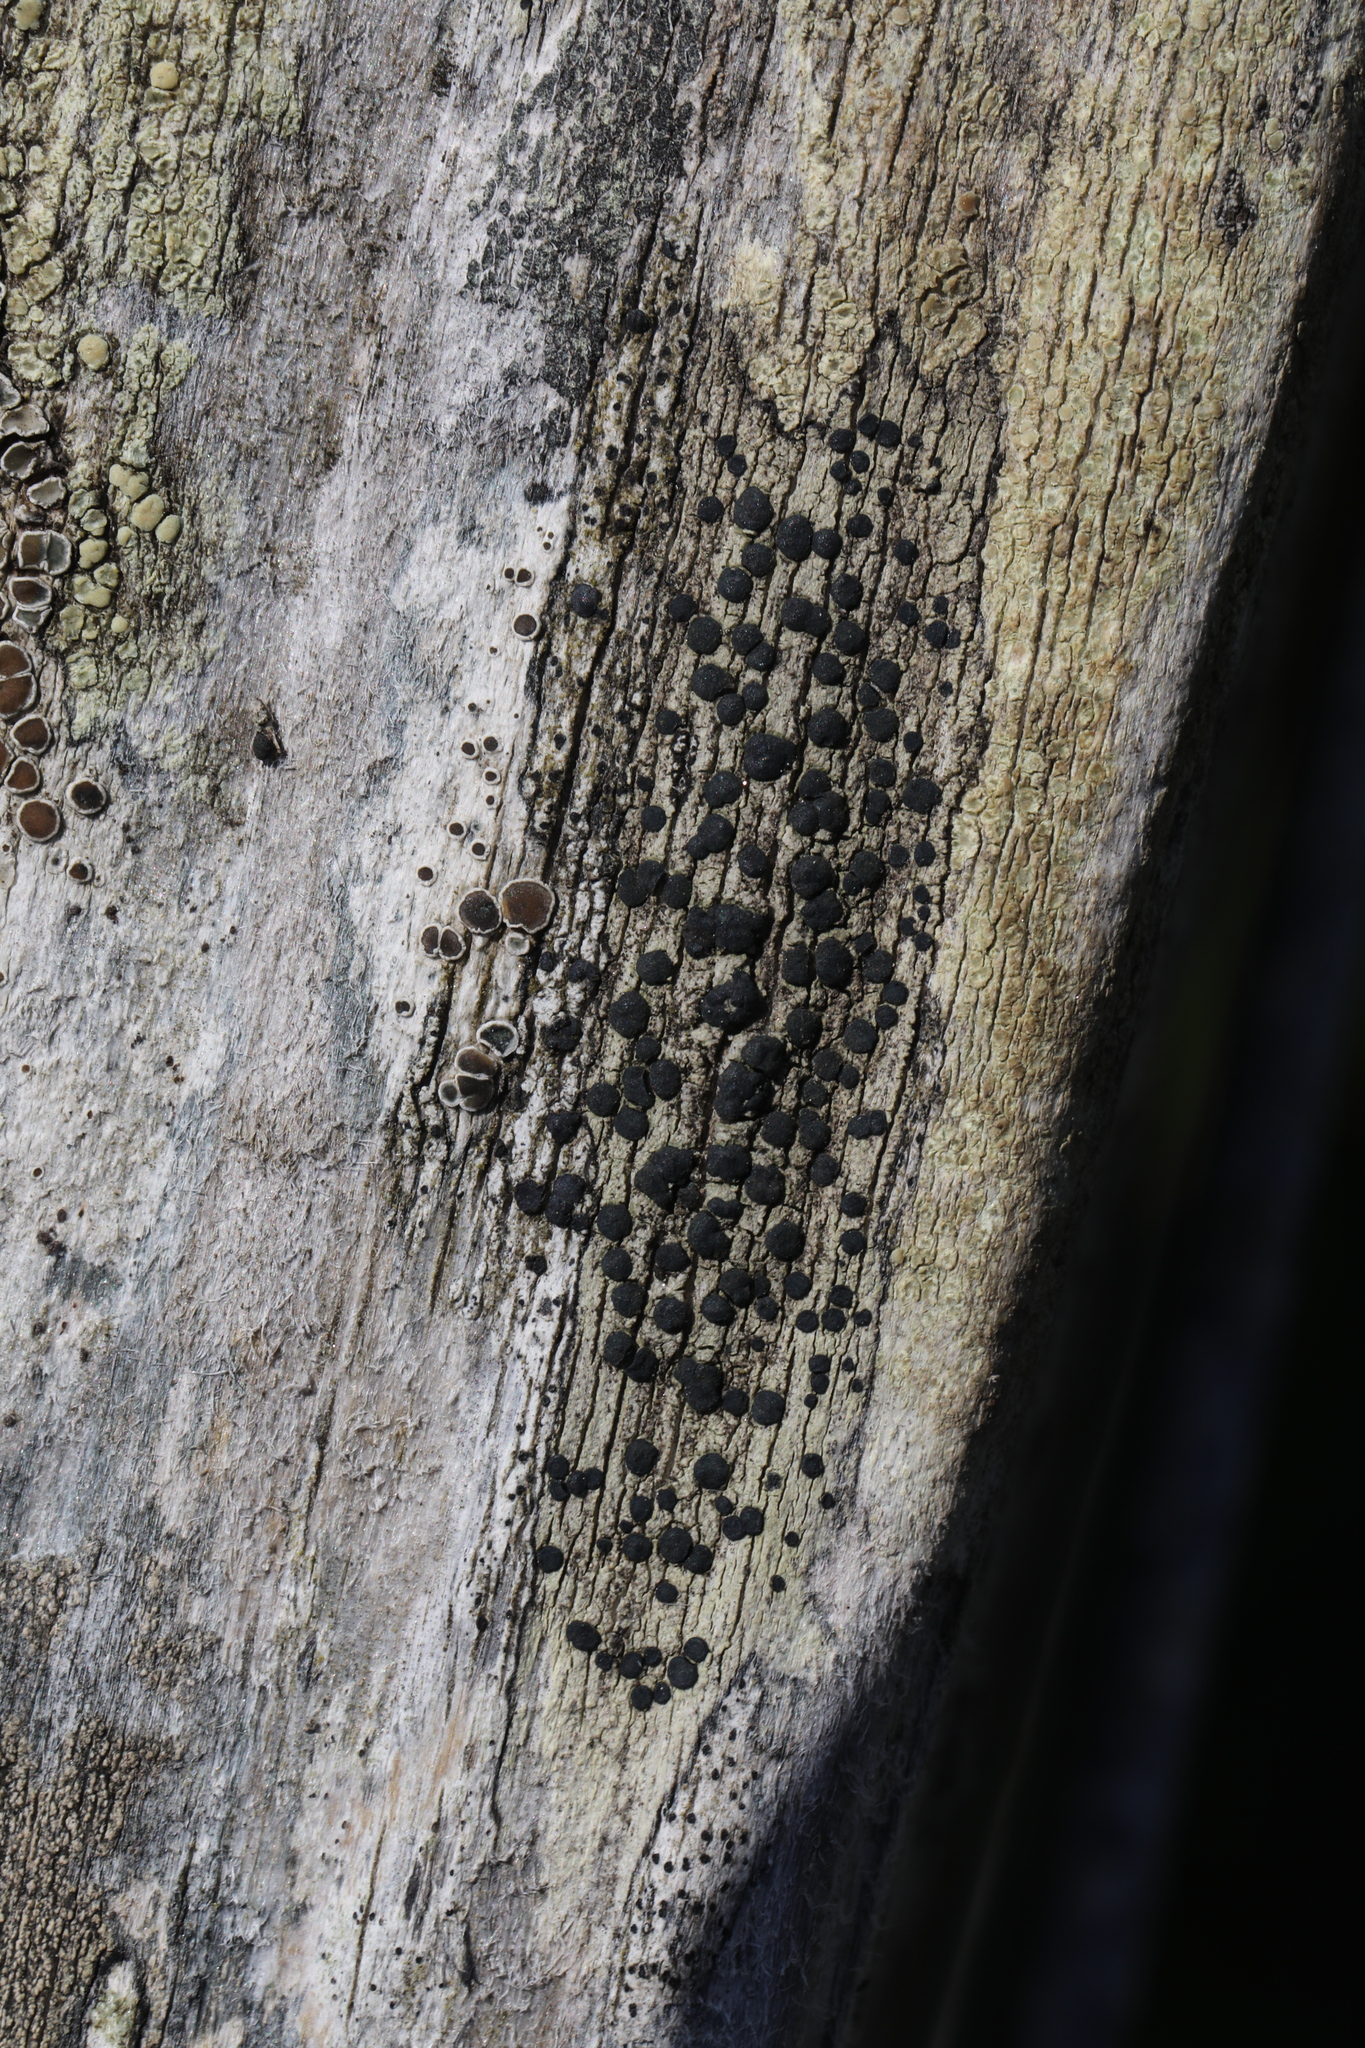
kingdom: Fungi
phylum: Ascomycota
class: Lecanoromycetes
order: Lecanorales
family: Lecanoraceae
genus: Lecidella
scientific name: Lecidella elaeochroma
